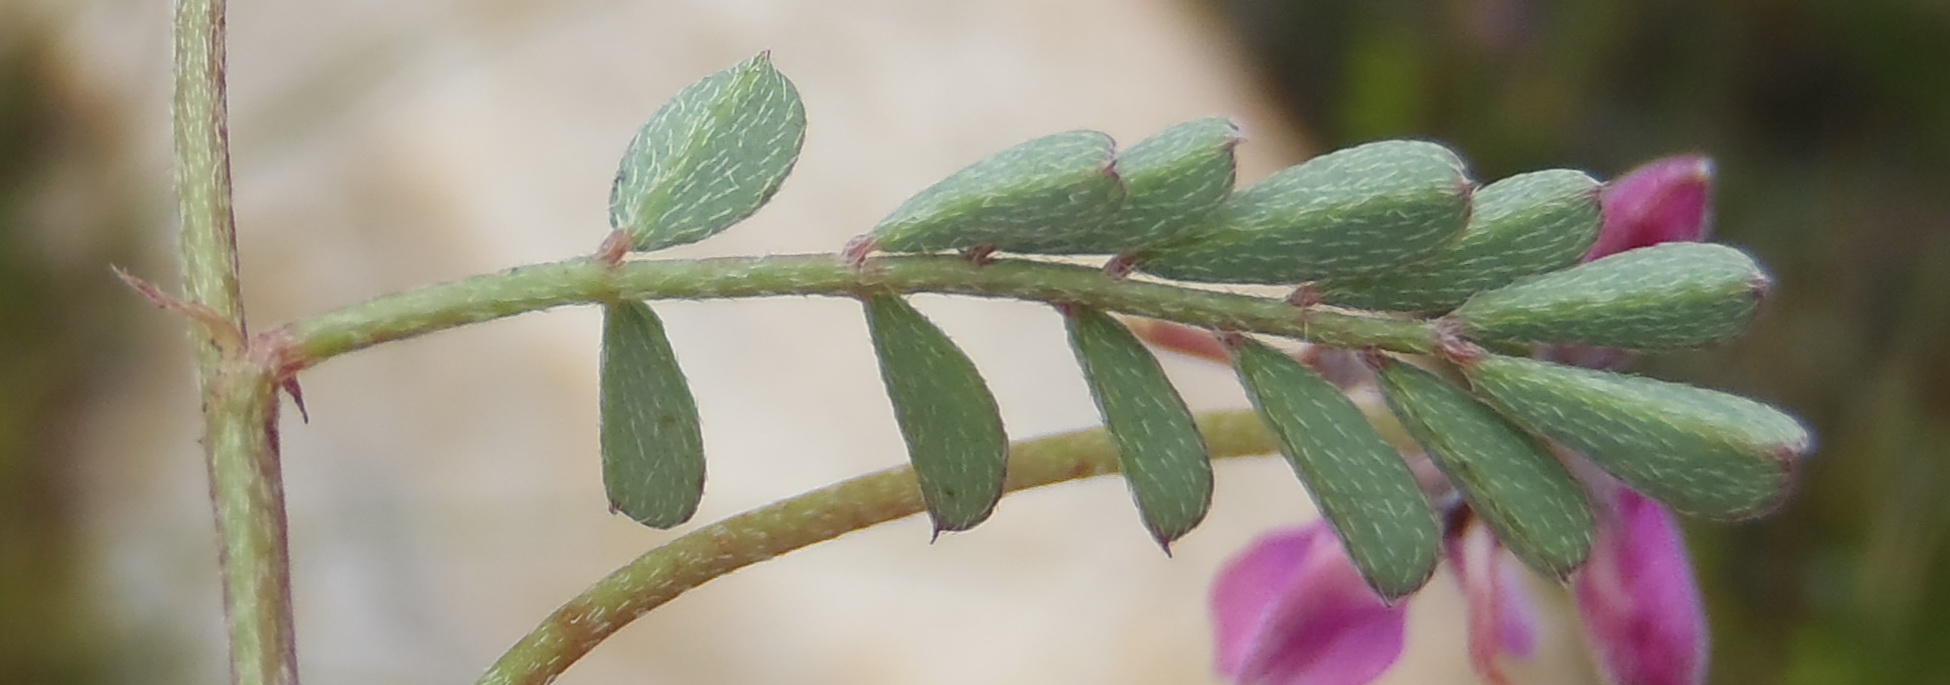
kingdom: Plantae
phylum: Tracheophyta
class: Magnoliopsida
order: Fabales
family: Fabaceae
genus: Indigofera
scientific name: Indigofera declinata
